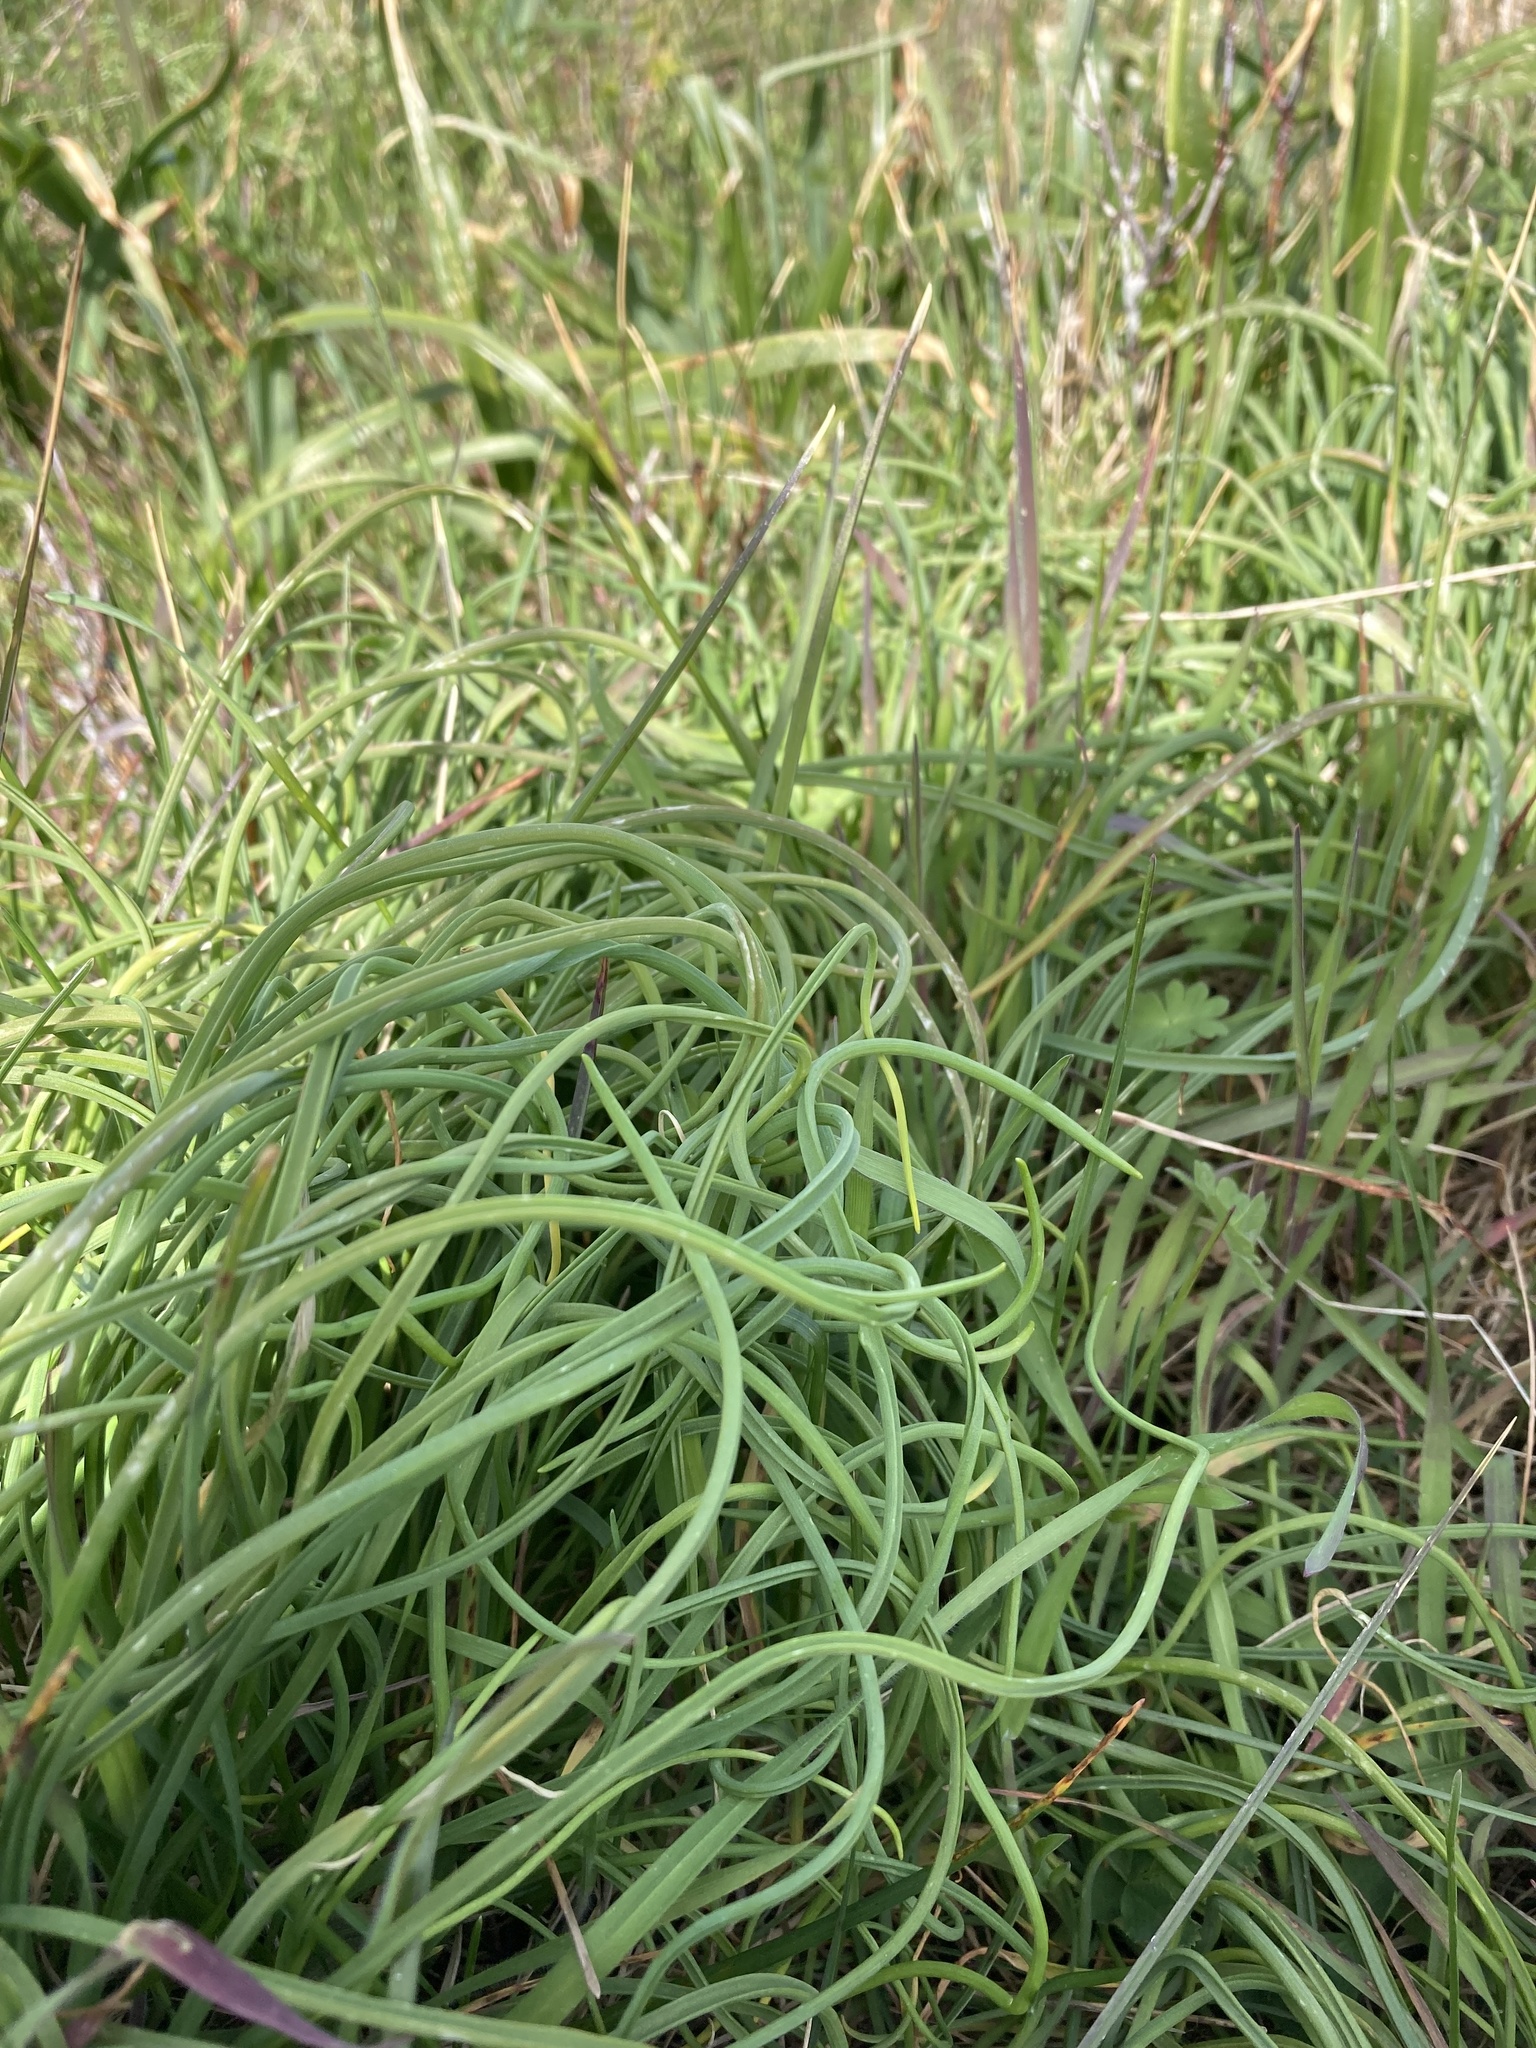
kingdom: Plantae
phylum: Tracheophyta
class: Liliopsida
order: Asparagales
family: Amaryllidaceae
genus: Allium
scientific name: Allium acuminatum
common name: Hooker's onion
